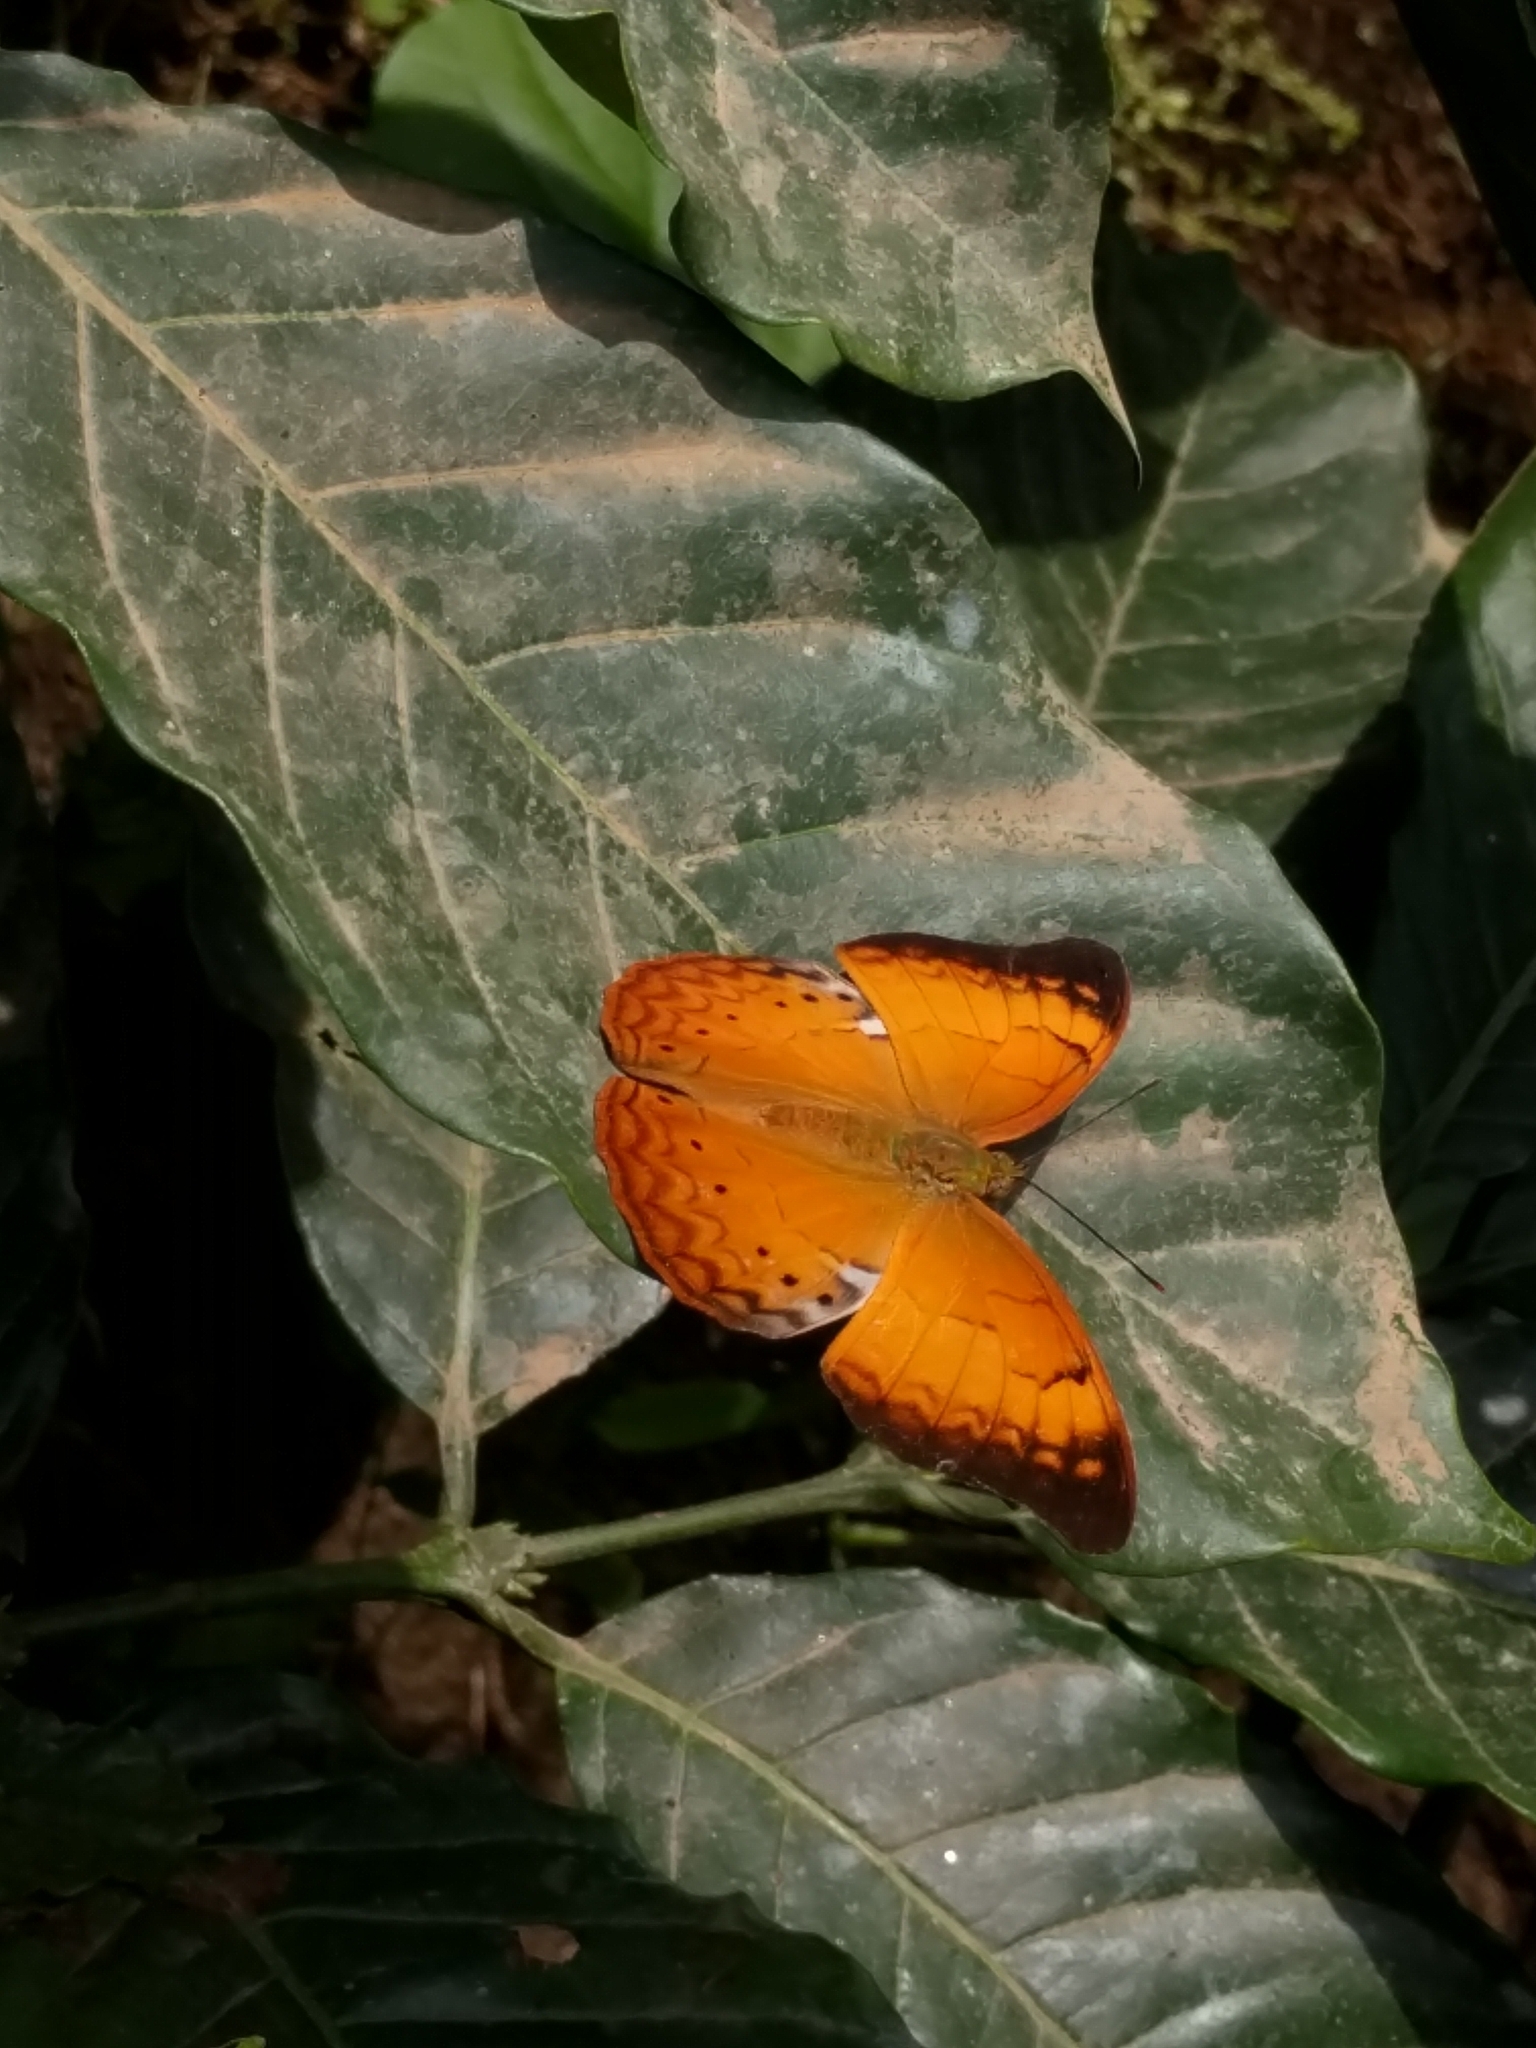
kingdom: Animalia
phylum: Arthropoda
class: Insecta
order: Lepidoptera
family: Nymphalidae
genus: Cirrochroa
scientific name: Cirrochroa thais
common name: Tamil yeoman
